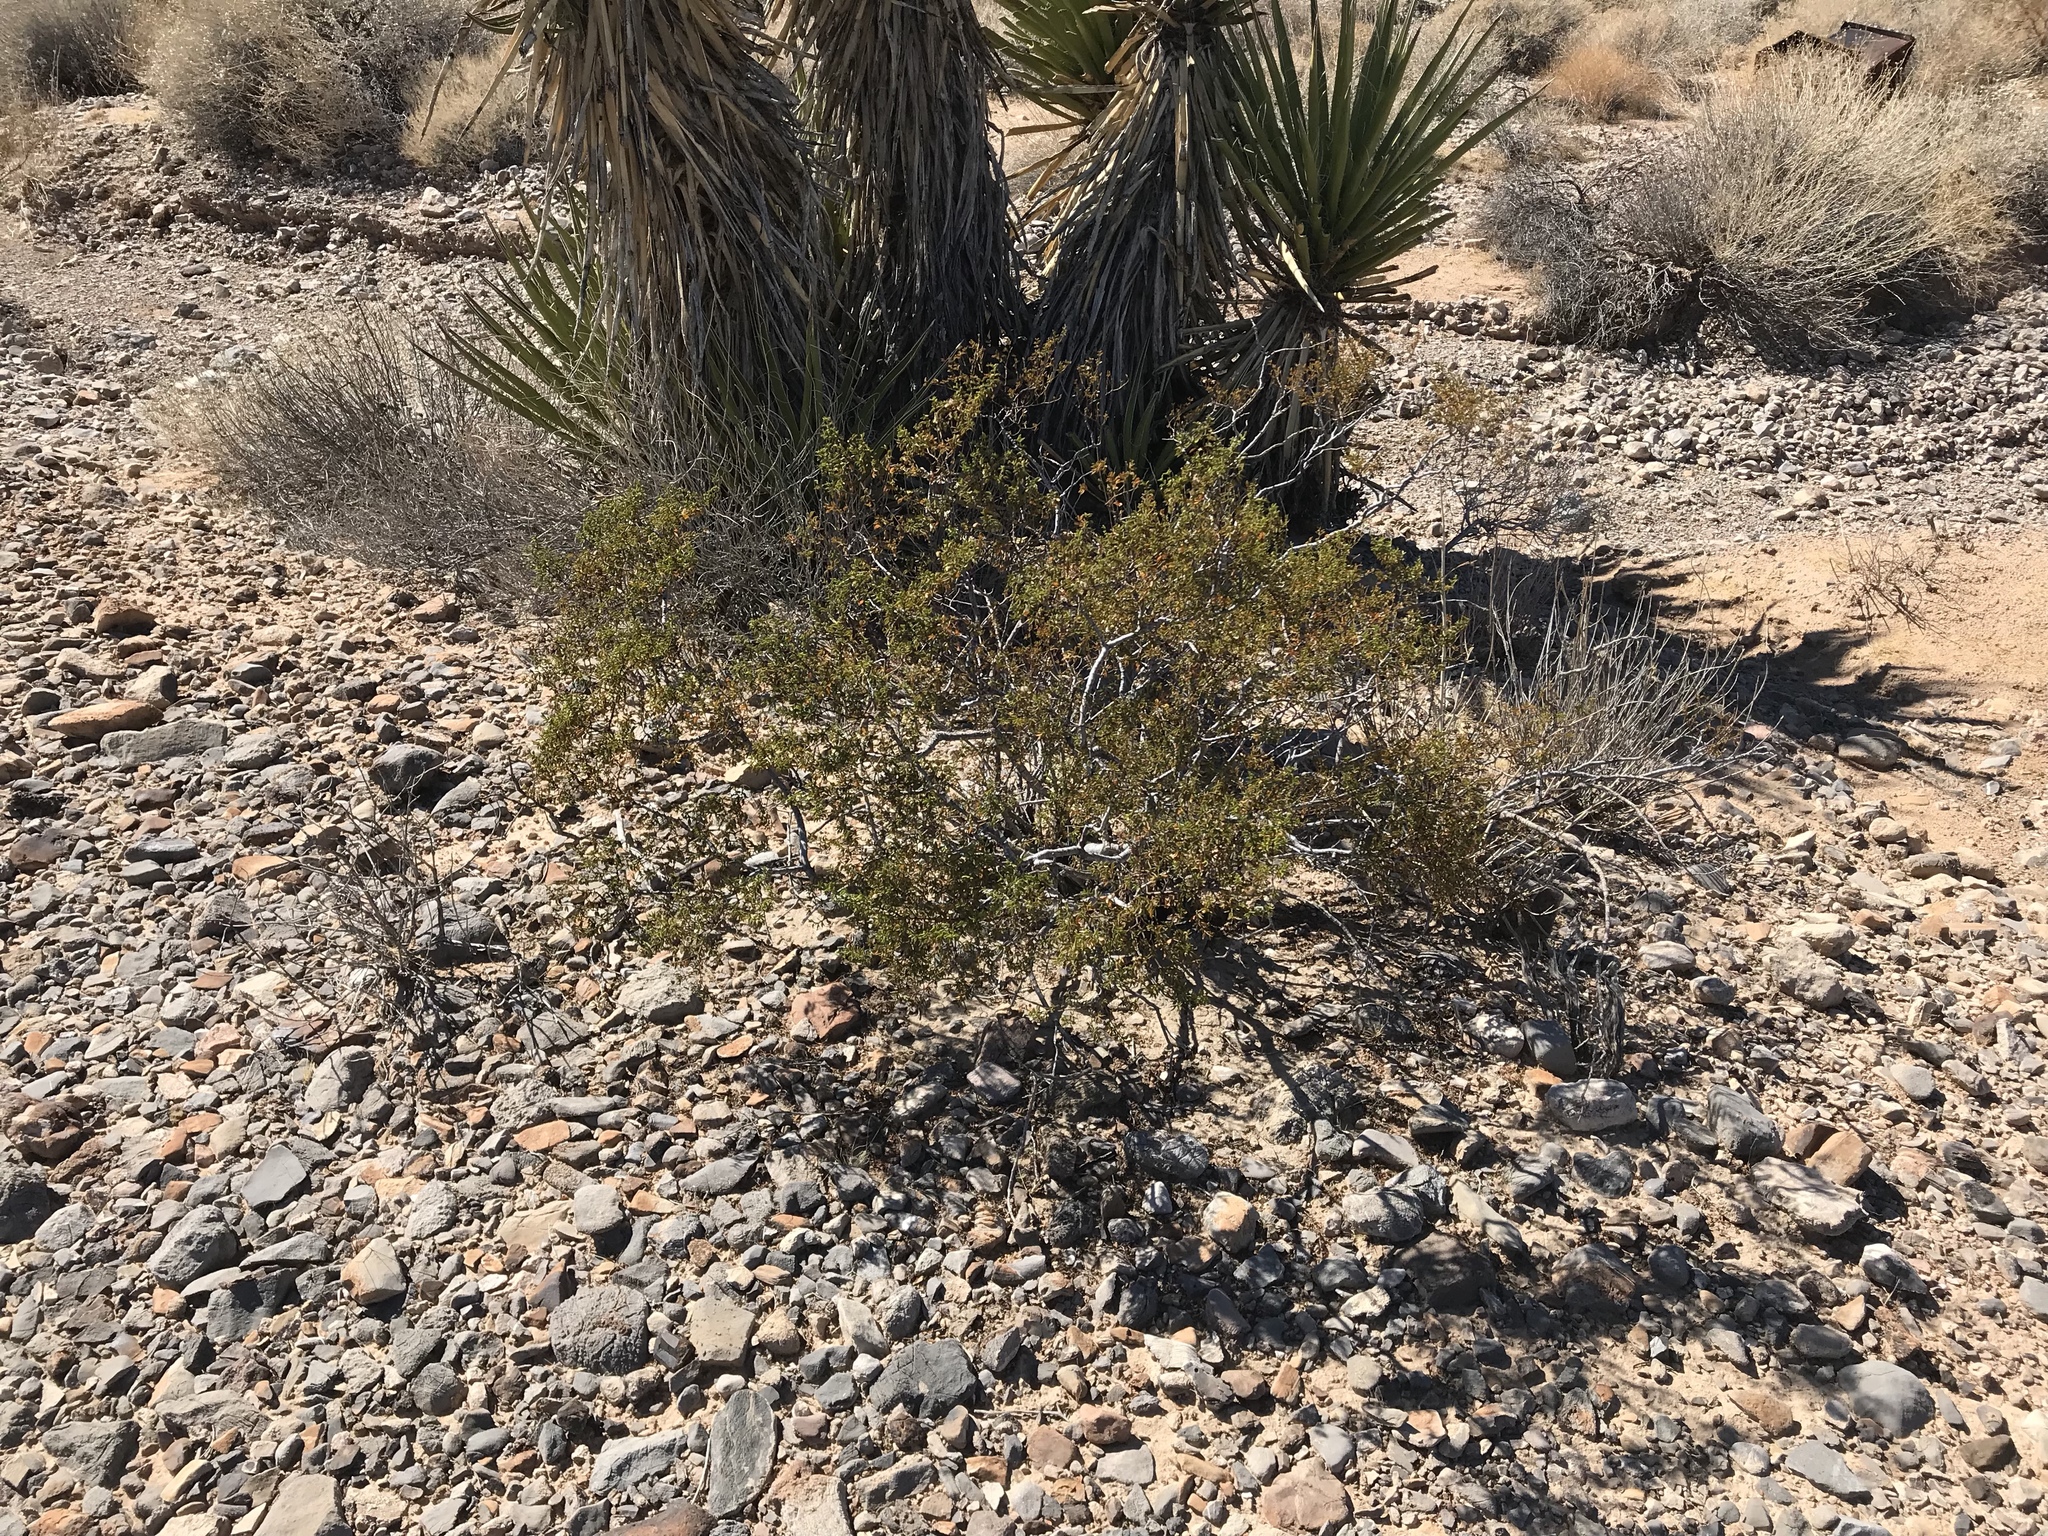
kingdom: Plantae
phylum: Tracheophyta
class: Magnoliopsida
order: Zygophyllales
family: Zygophyllaceae
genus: Larrea
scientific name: Larrea tridentata
